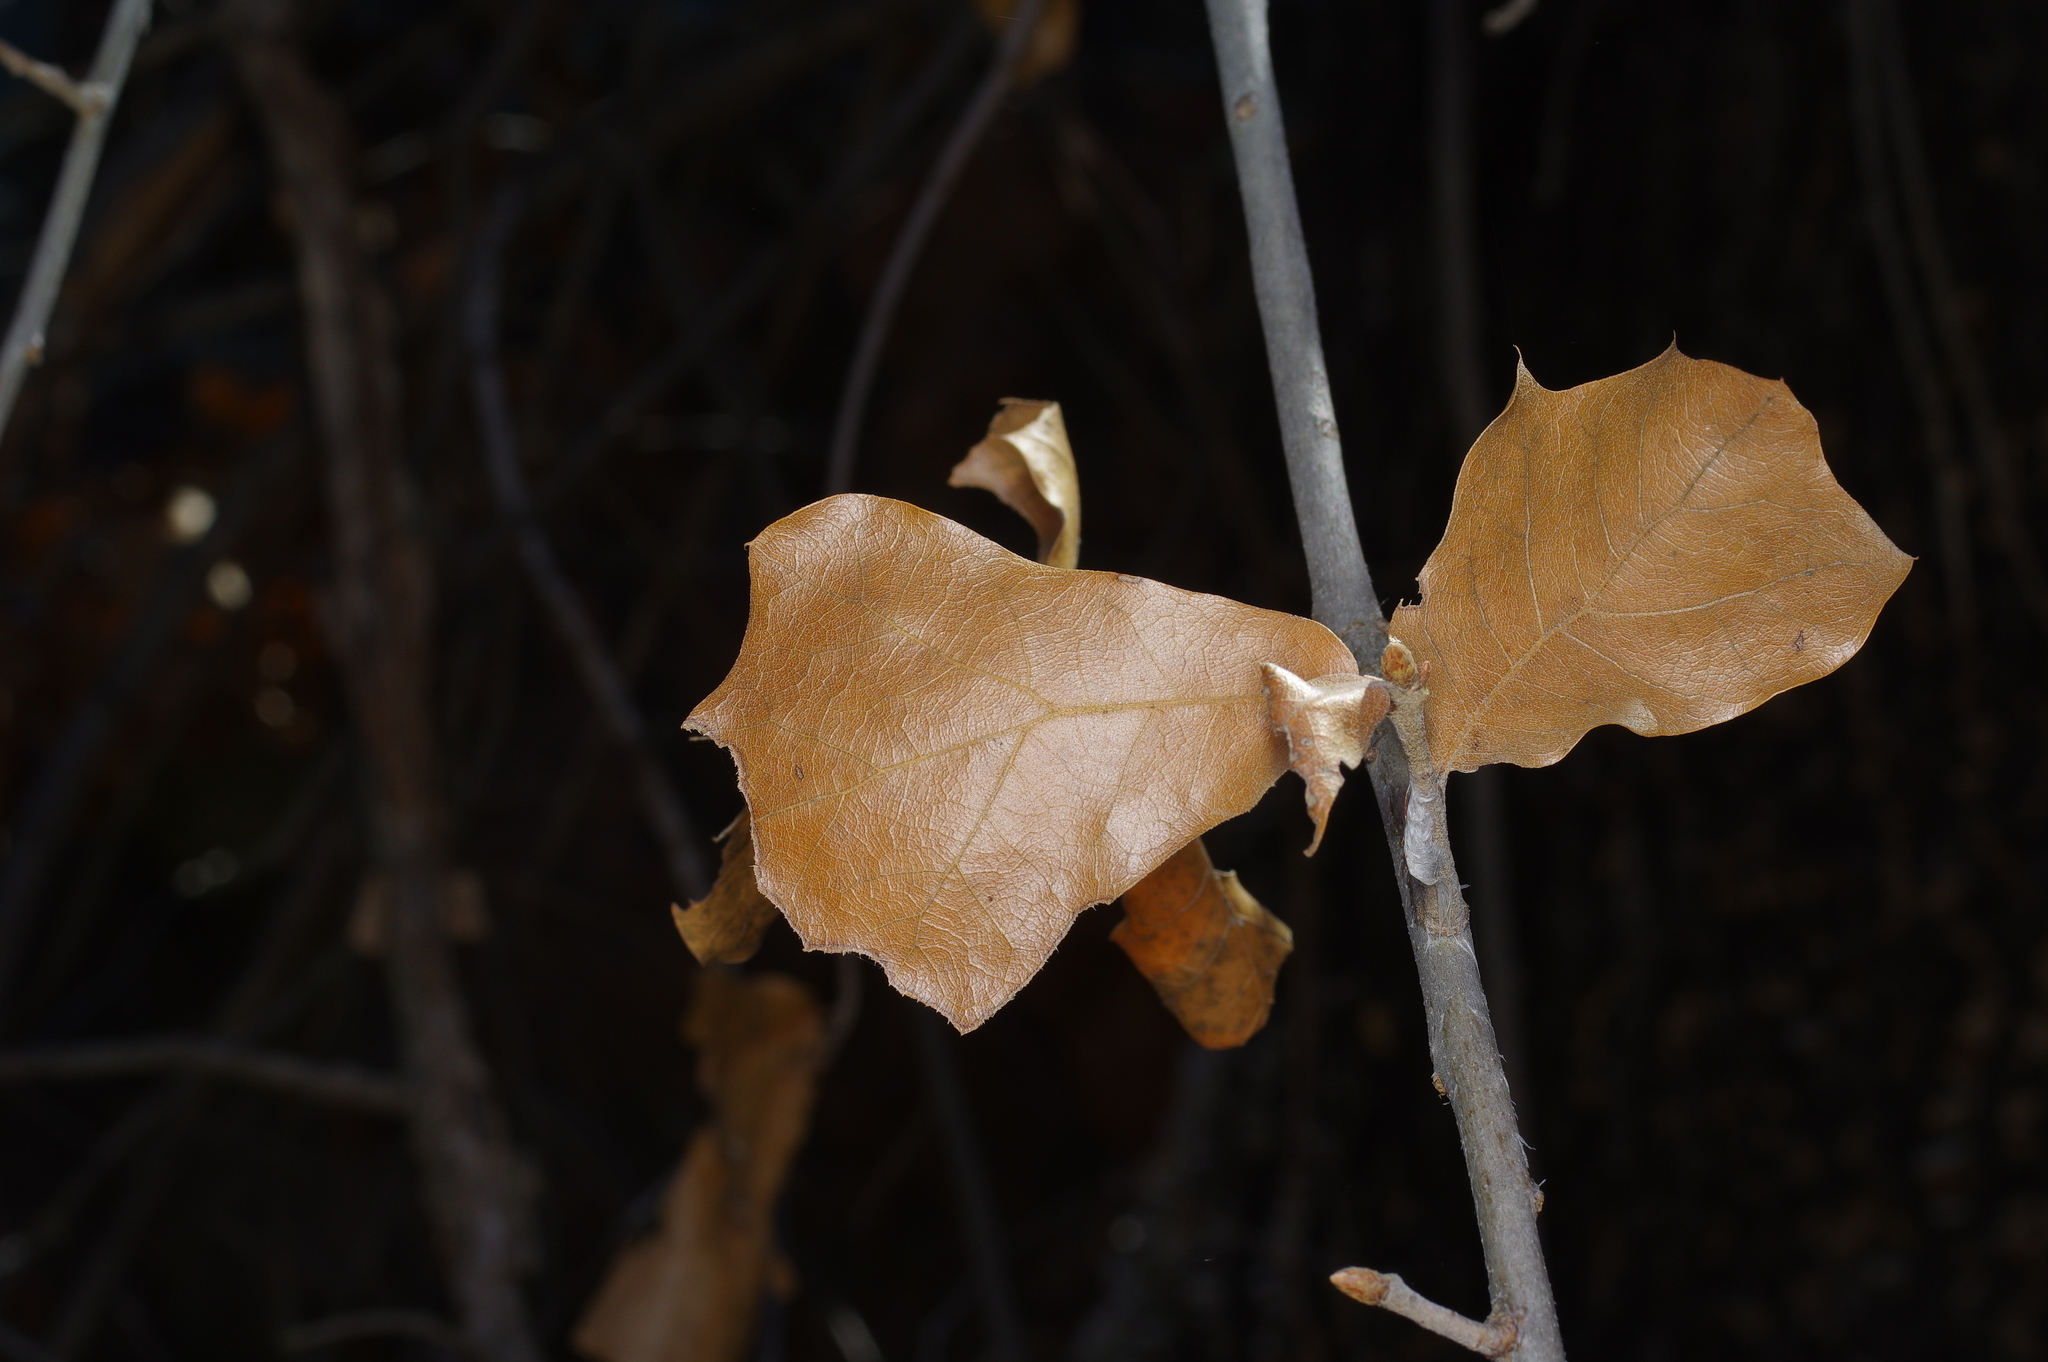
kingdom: Plantae
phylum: Tracheophyta
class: Magnoliopsida
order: Fagales
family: Fagaceae
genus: Quercus
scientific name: Quercus marilandica
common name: Blackjack oak
